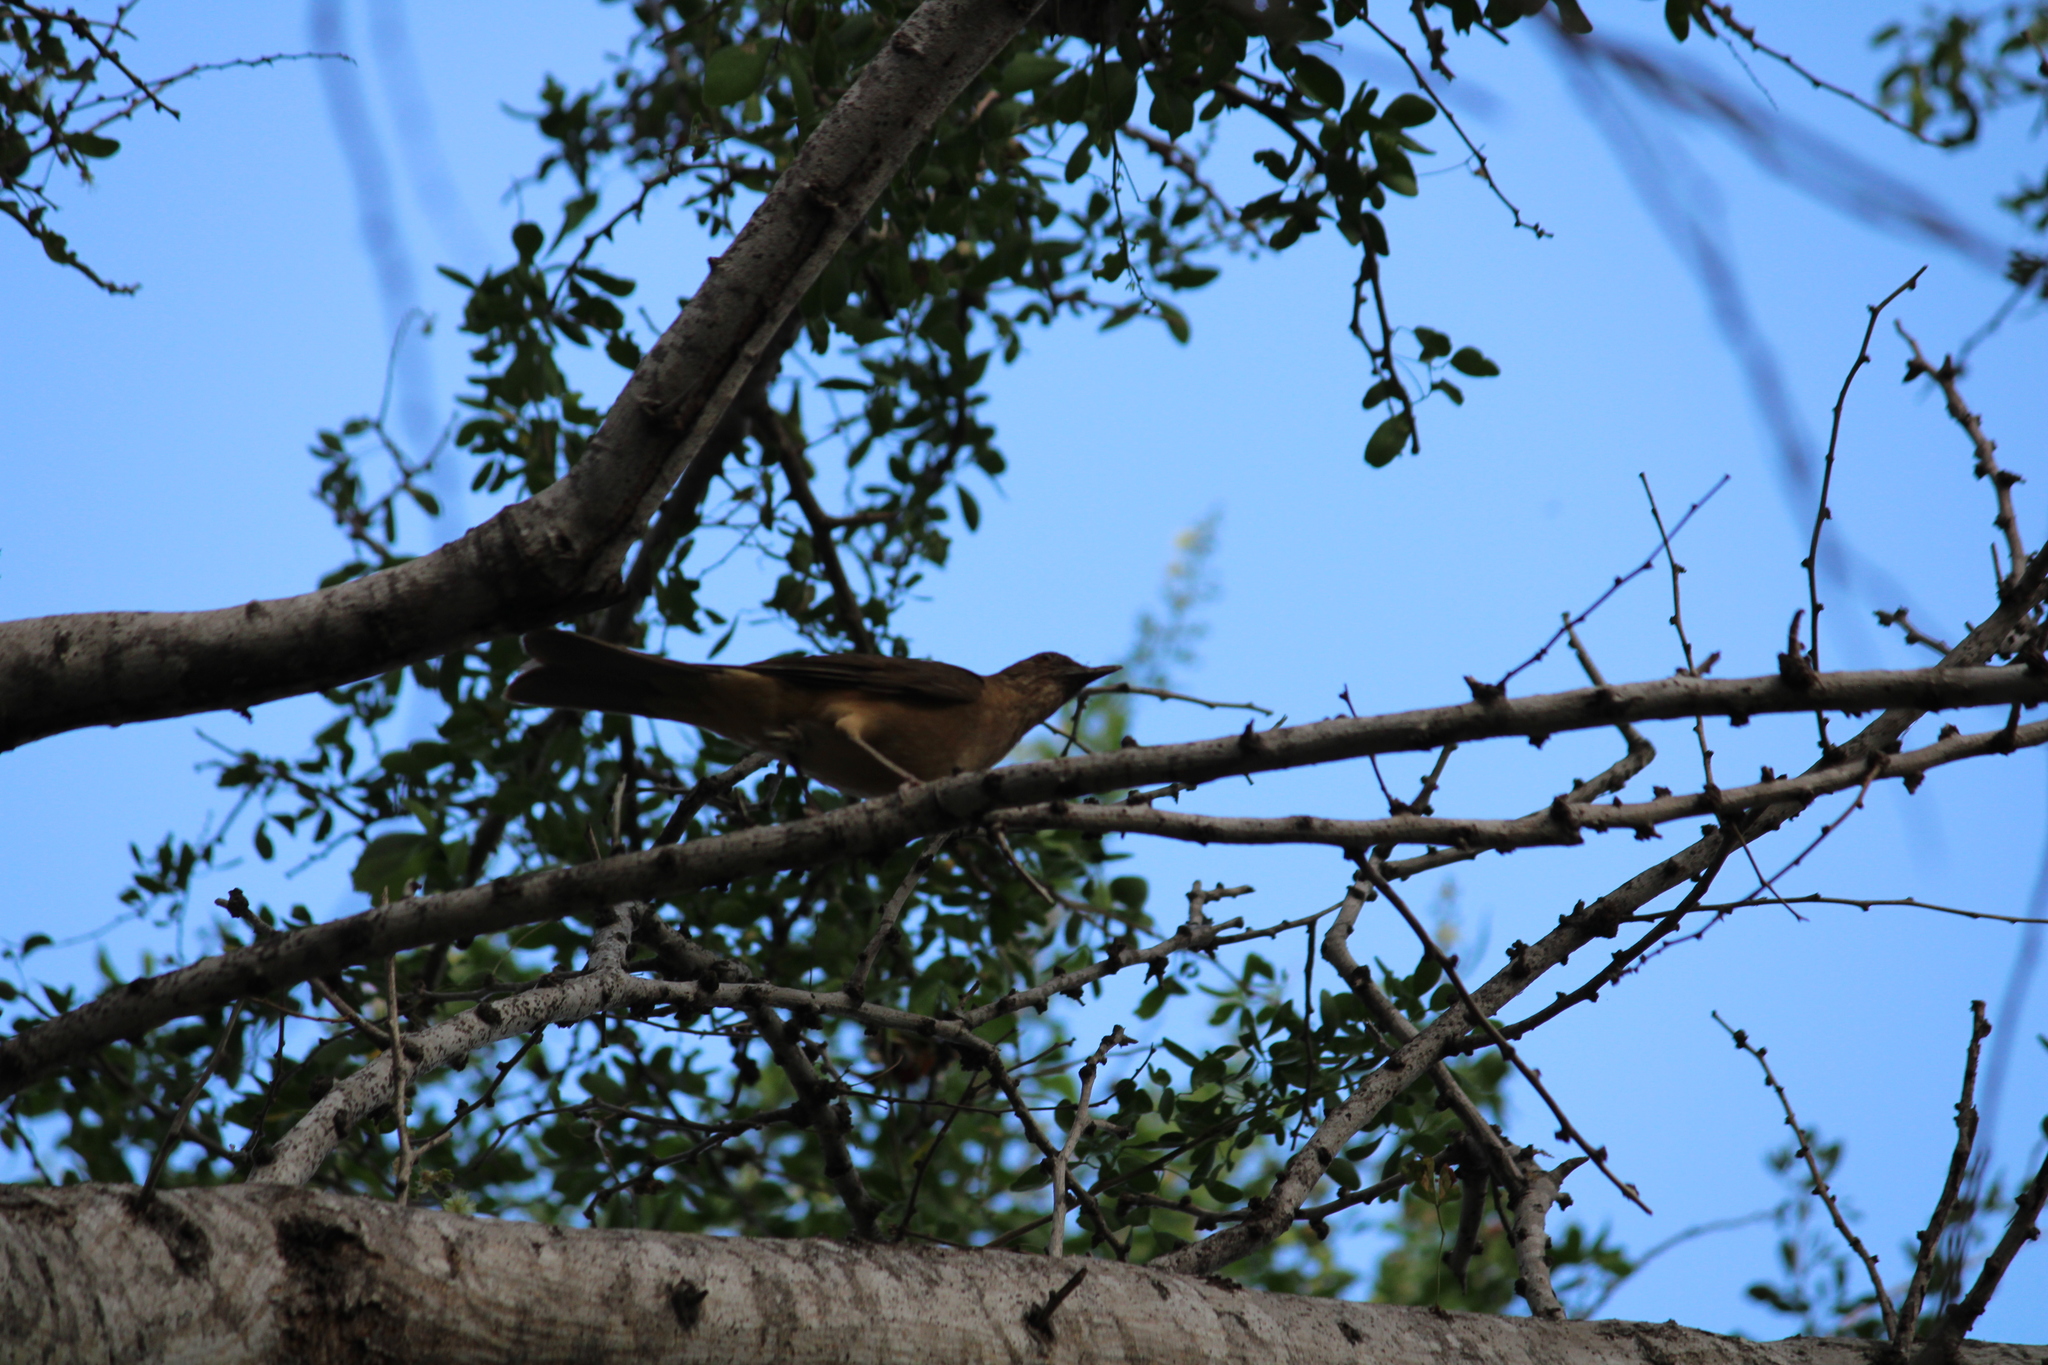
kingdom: Animalia
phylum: Chordata
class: Aves
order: Passeriformes
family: Turdidae
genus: Turdus
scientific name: Turdus grayi
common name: Clay-colored thrush
